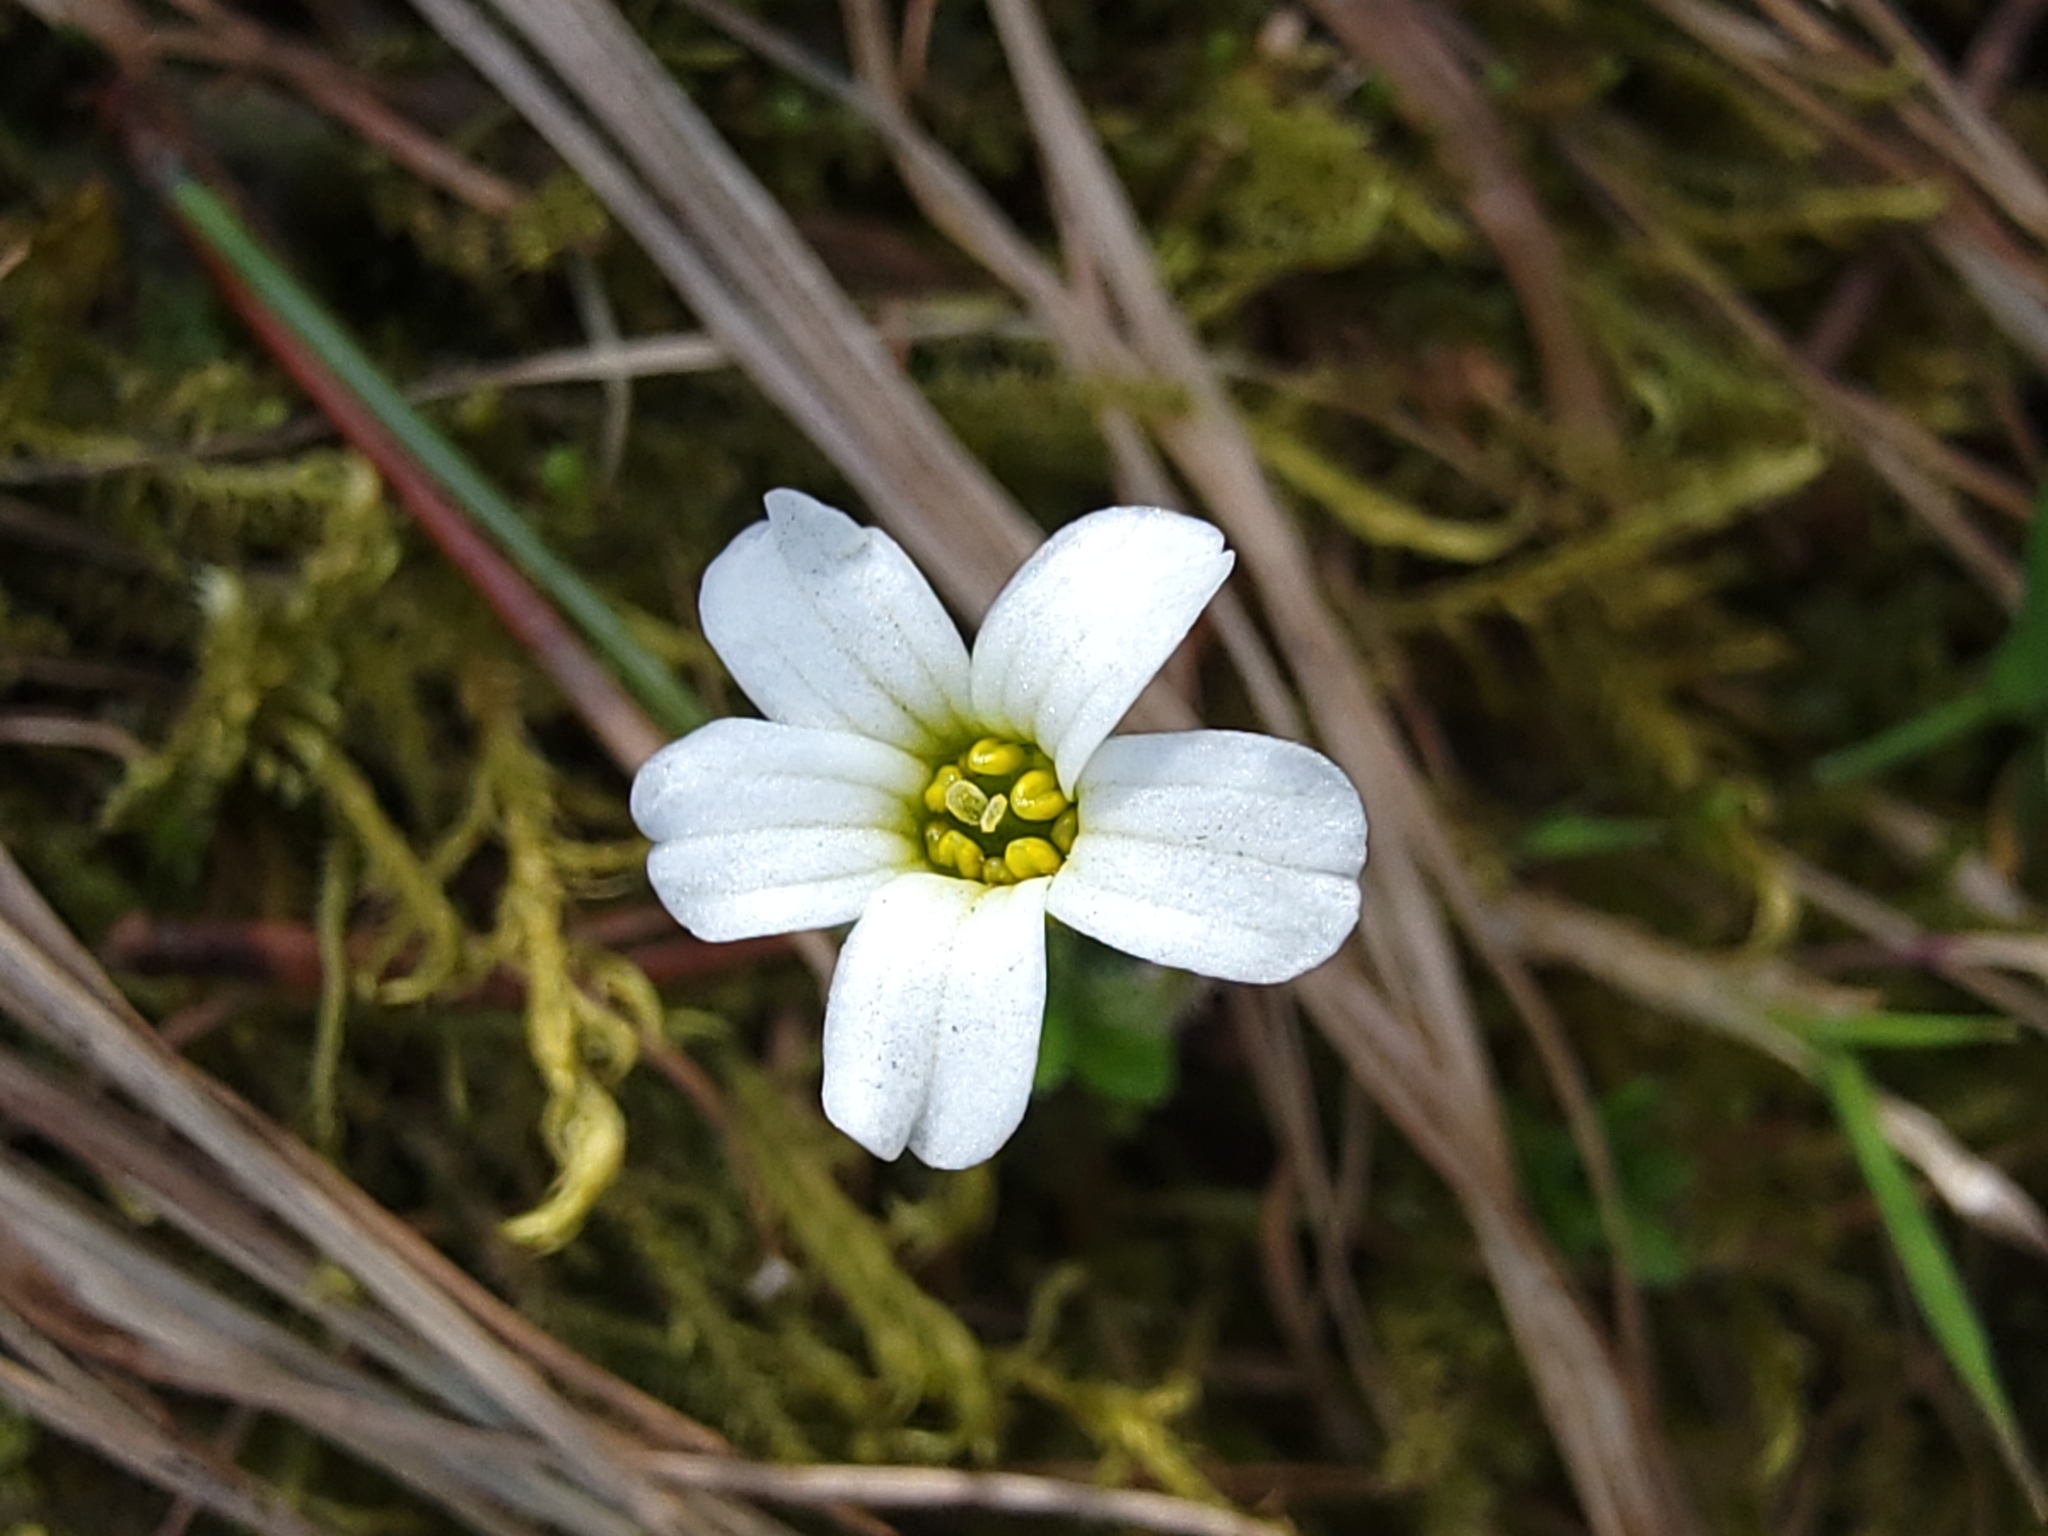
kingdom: Plantae
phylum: Tracheophyta
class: Magnoliopsida
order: Saxifragales
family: Saxifragaceae
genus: Saxifraga
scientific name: Saxifraga androsacea
